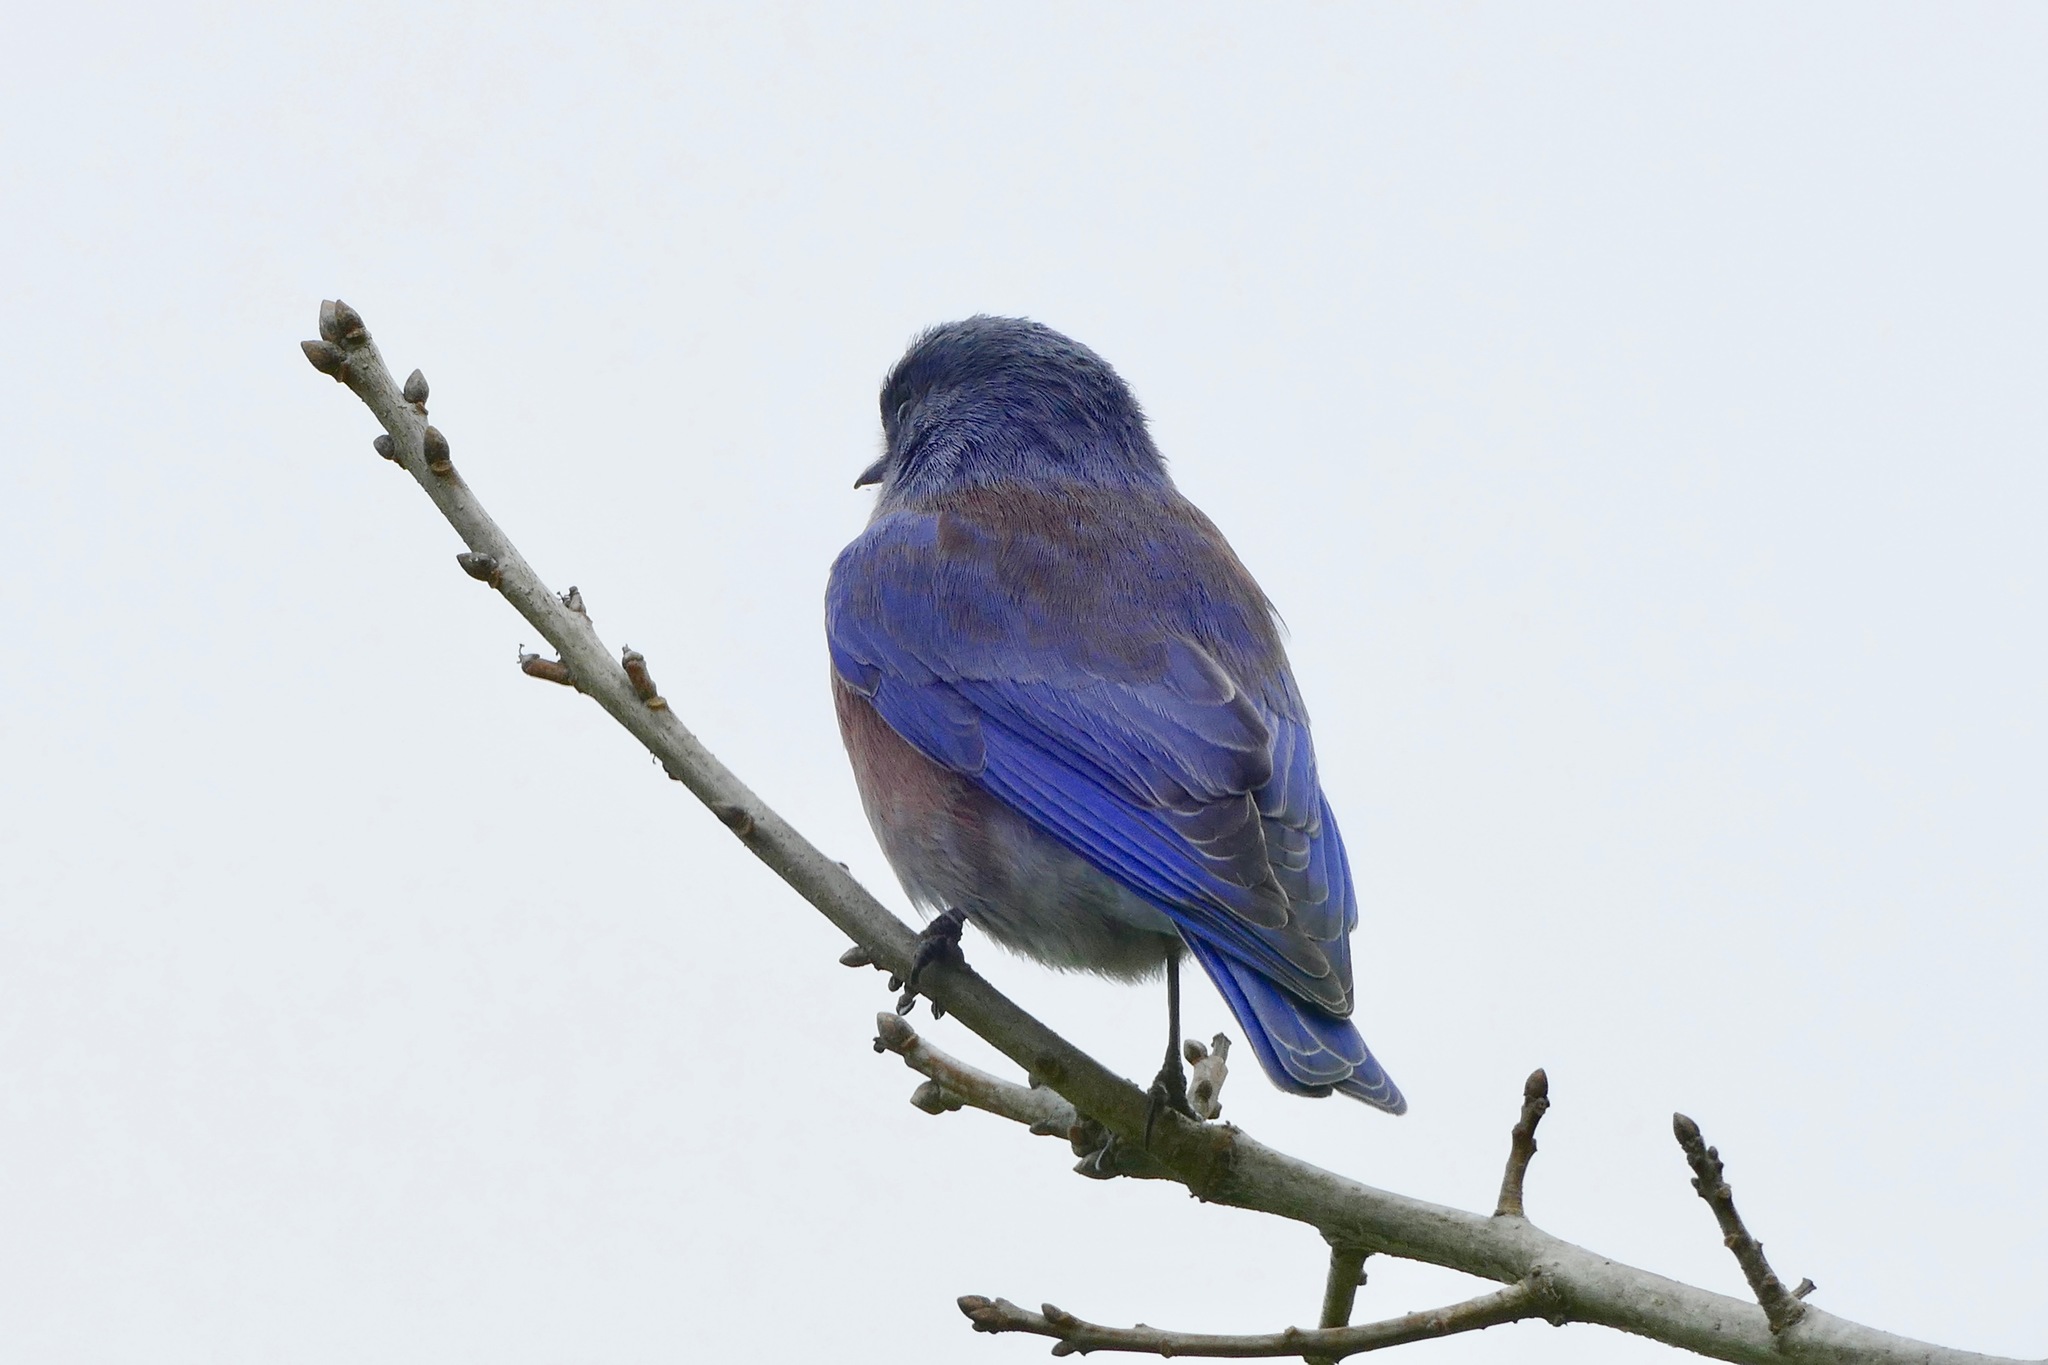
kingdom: Animalia
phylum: Chordata
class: Aves
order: Passeriformes
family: Turdidae
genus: Sialia
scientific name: Sialia mexicana
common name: Western bluebird
